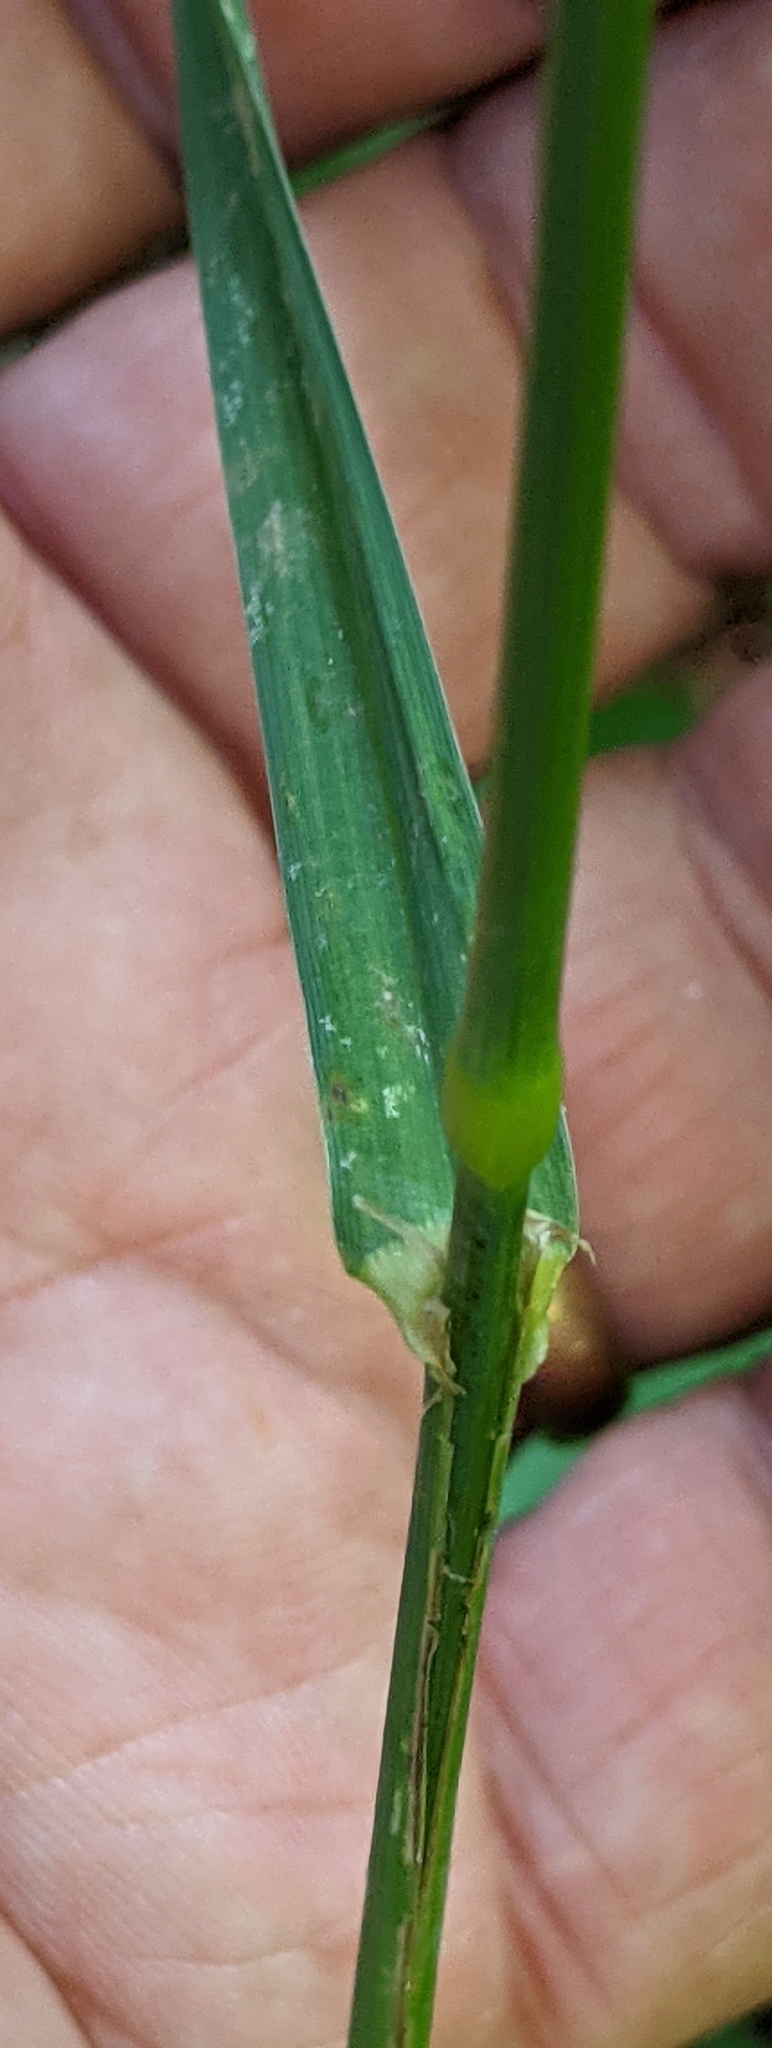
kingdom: Plantae
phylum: Tracheophyta
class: Liliopsida
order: Poales
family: Poaceae
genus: Dactylis
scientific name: Dactylis glomerata
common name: Orchardgrass
